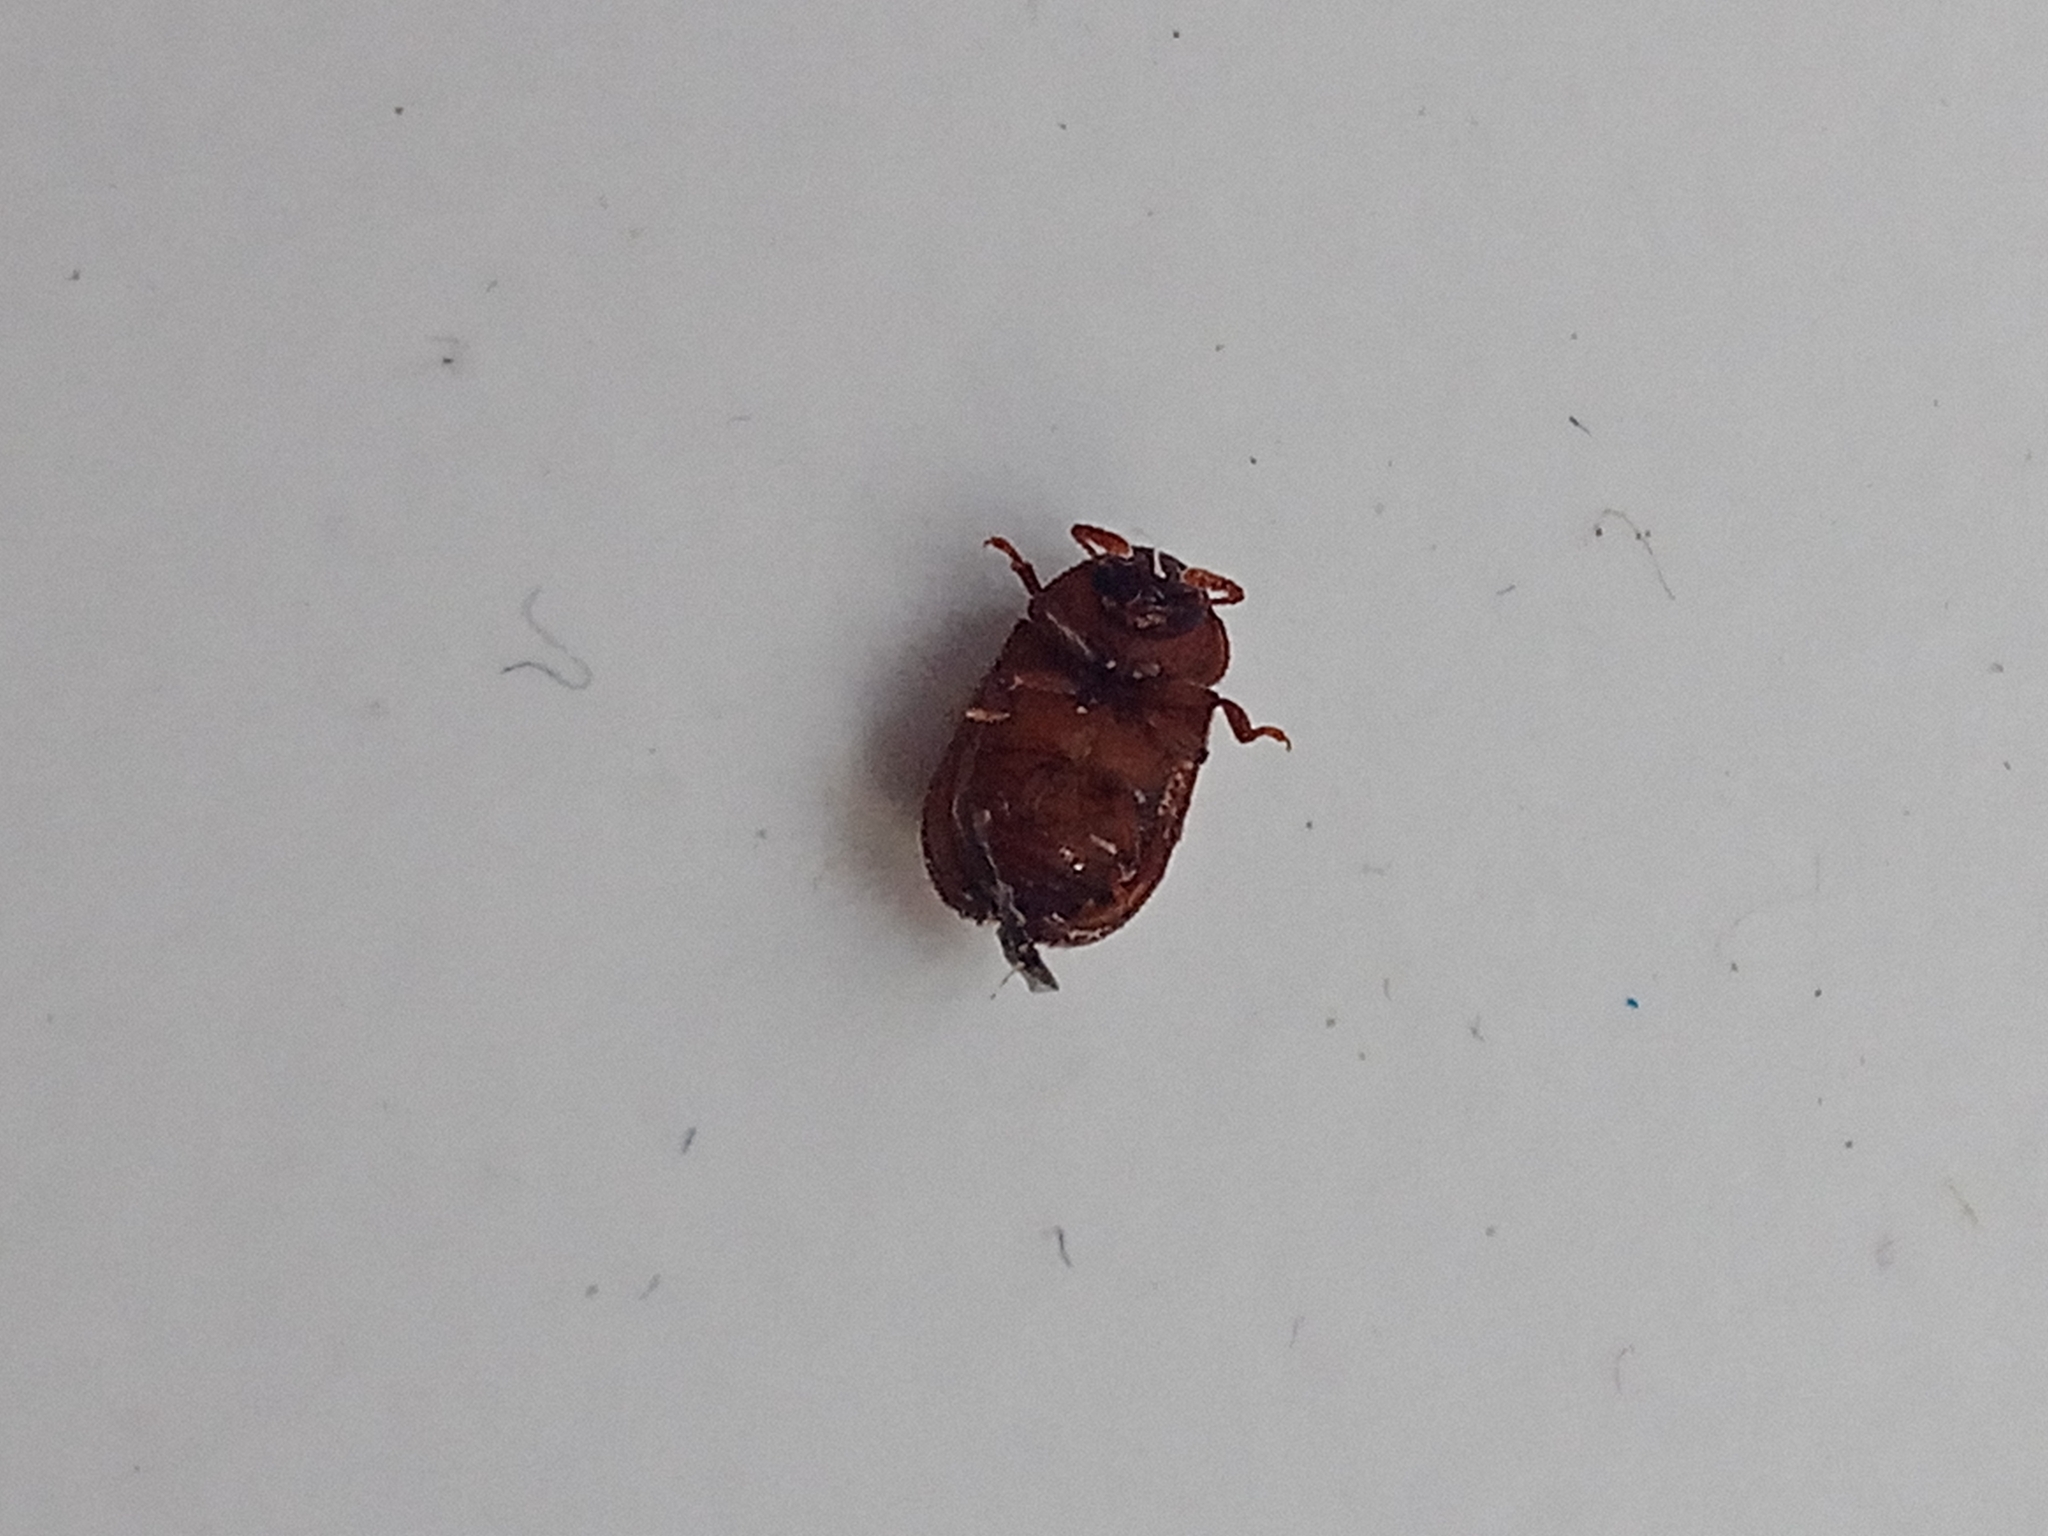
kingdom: Animalia
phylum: Arthropoda
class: Insecta
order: Coleoptera
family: Tenebrionidae
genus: Eledona
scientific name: Eledona agricola
